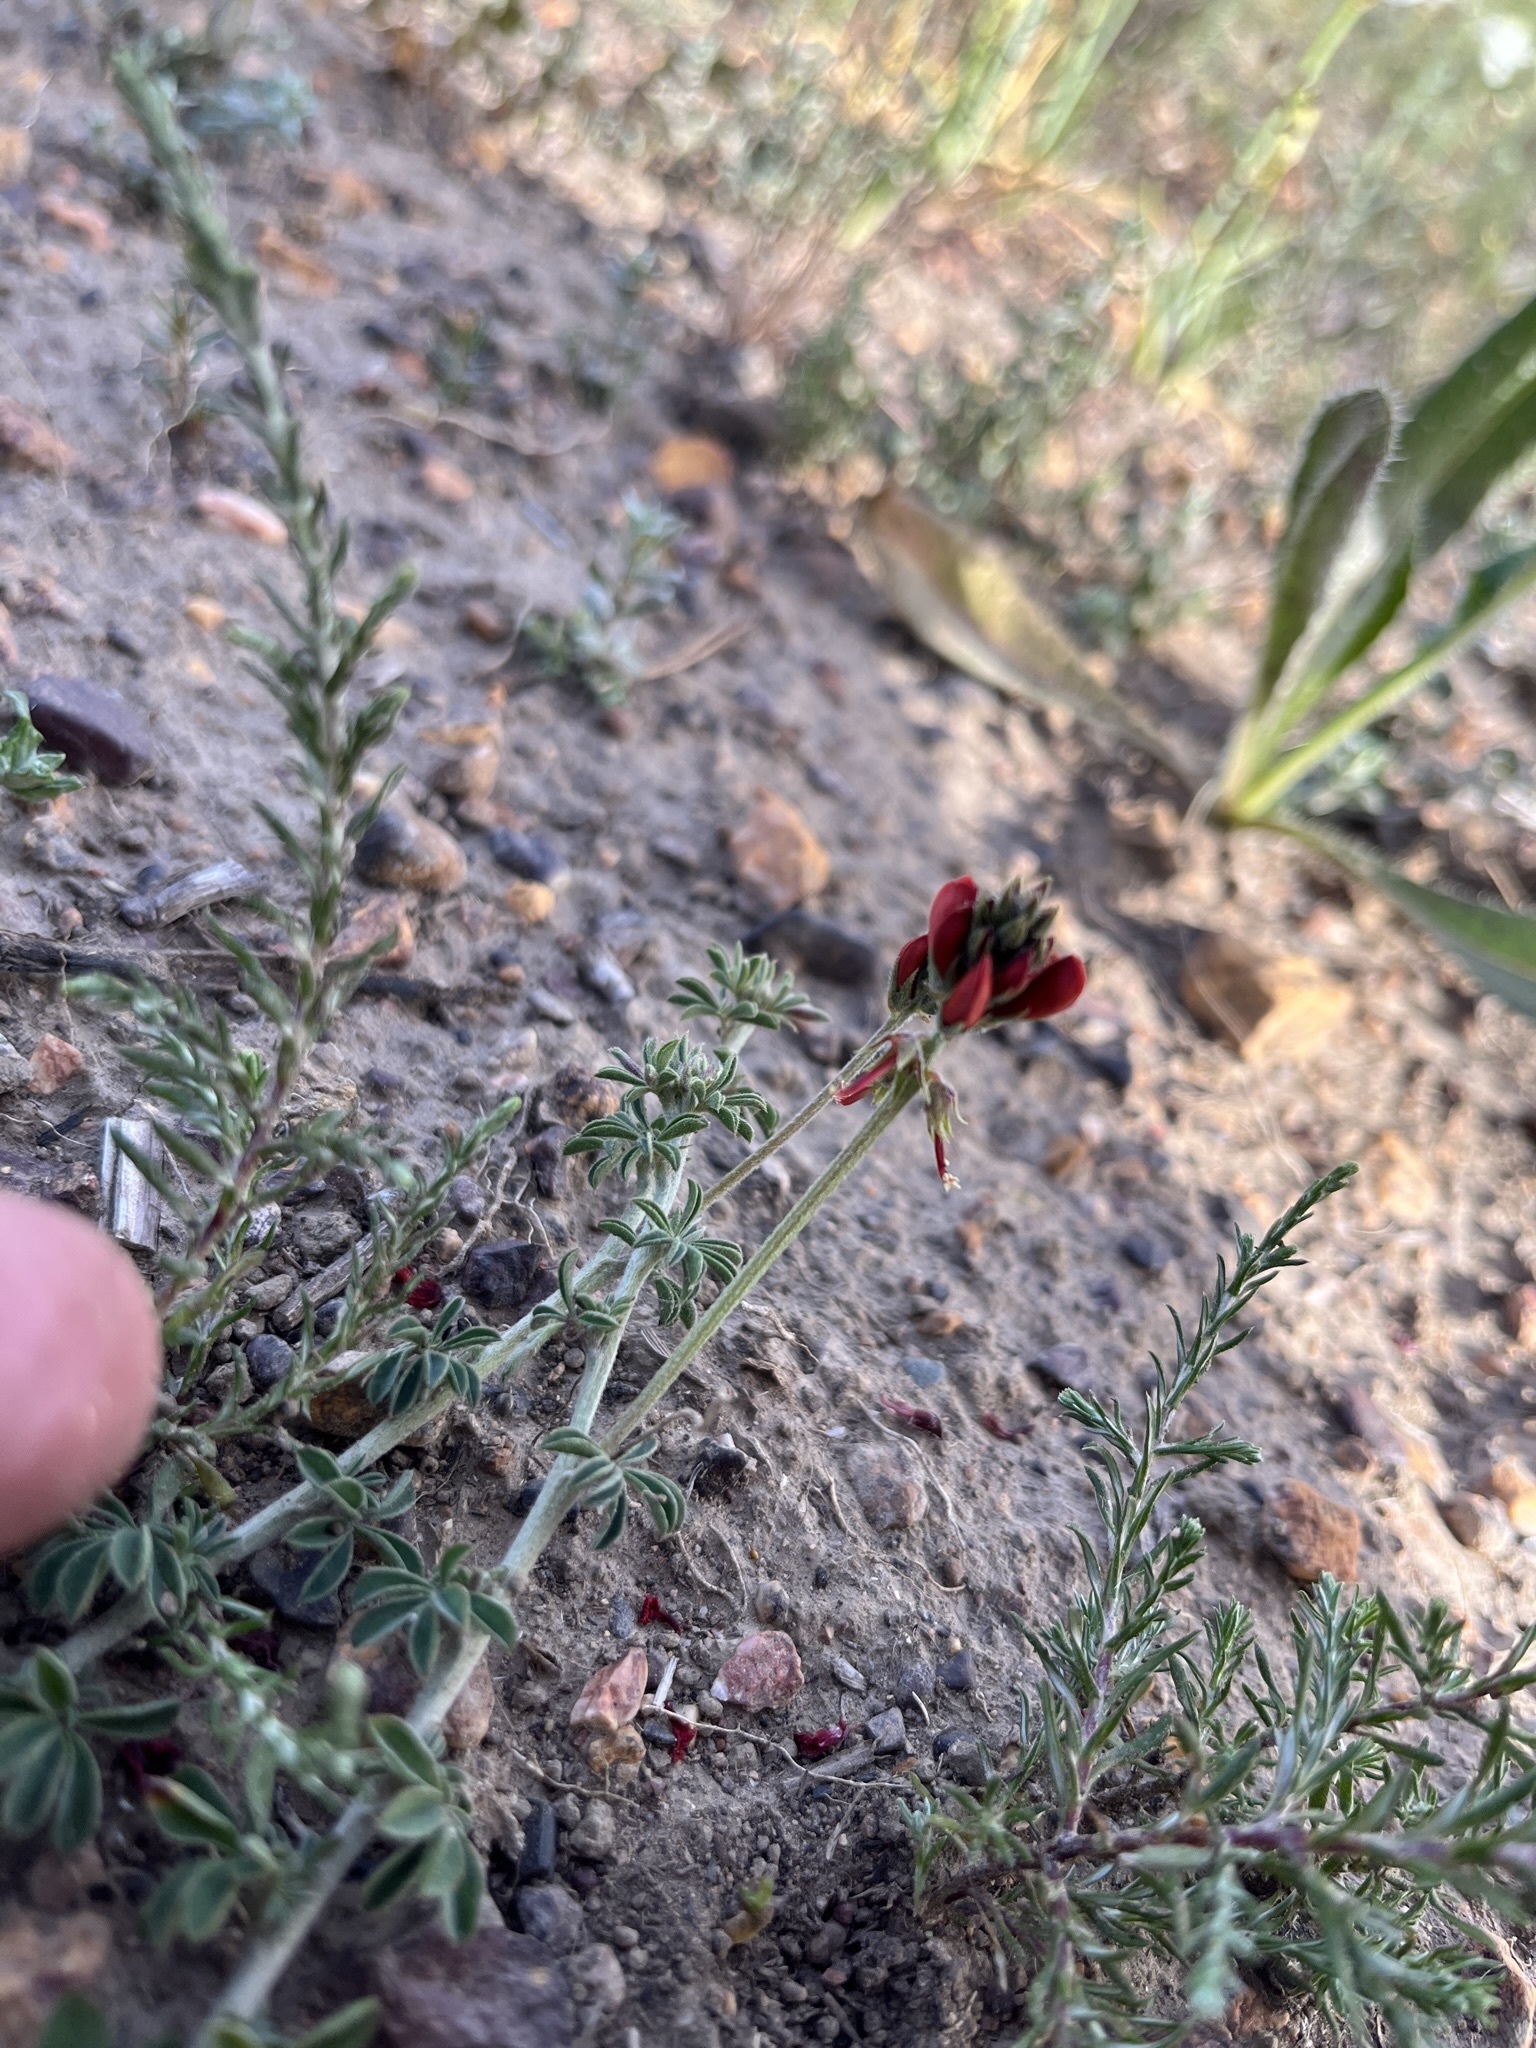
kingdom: Plantae
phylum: Tracheophyta
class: Magnoliopsida
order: Fabales
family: Fabaceae
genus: Indigofera
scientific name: Indigofera digitata
